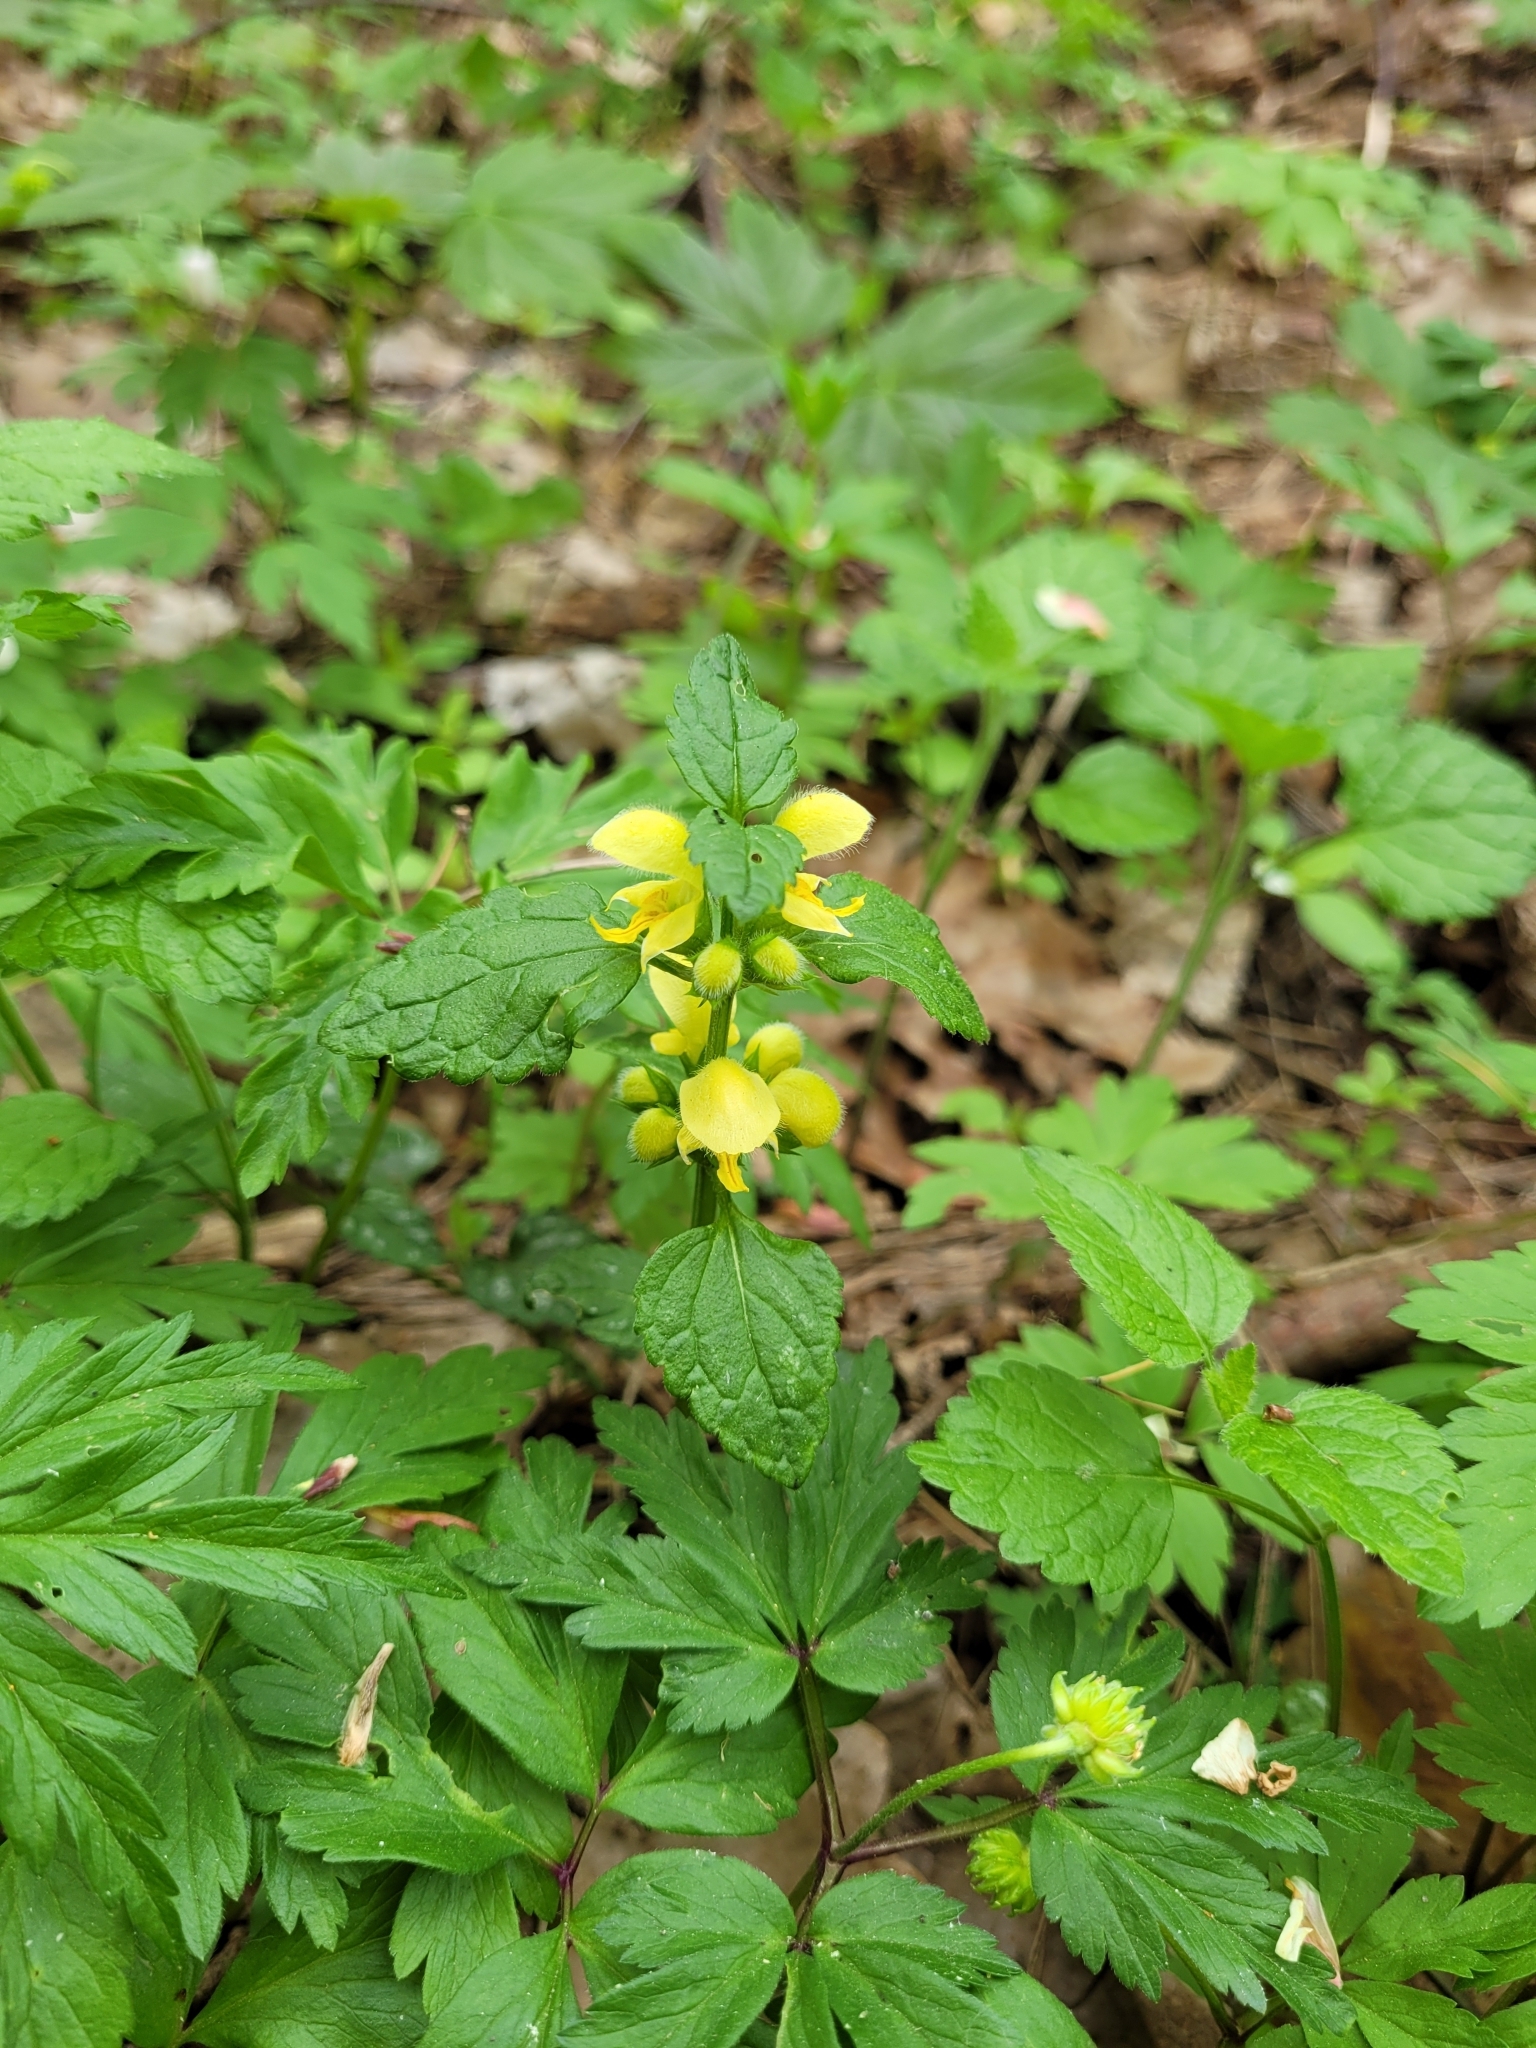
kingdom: Plantae
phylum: Tracheophyta
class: Magnoliopsida
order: Lamiales
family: Lamiaceae
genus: Lamium
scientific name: Lamium galeobdolon
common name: Yellow archangel
